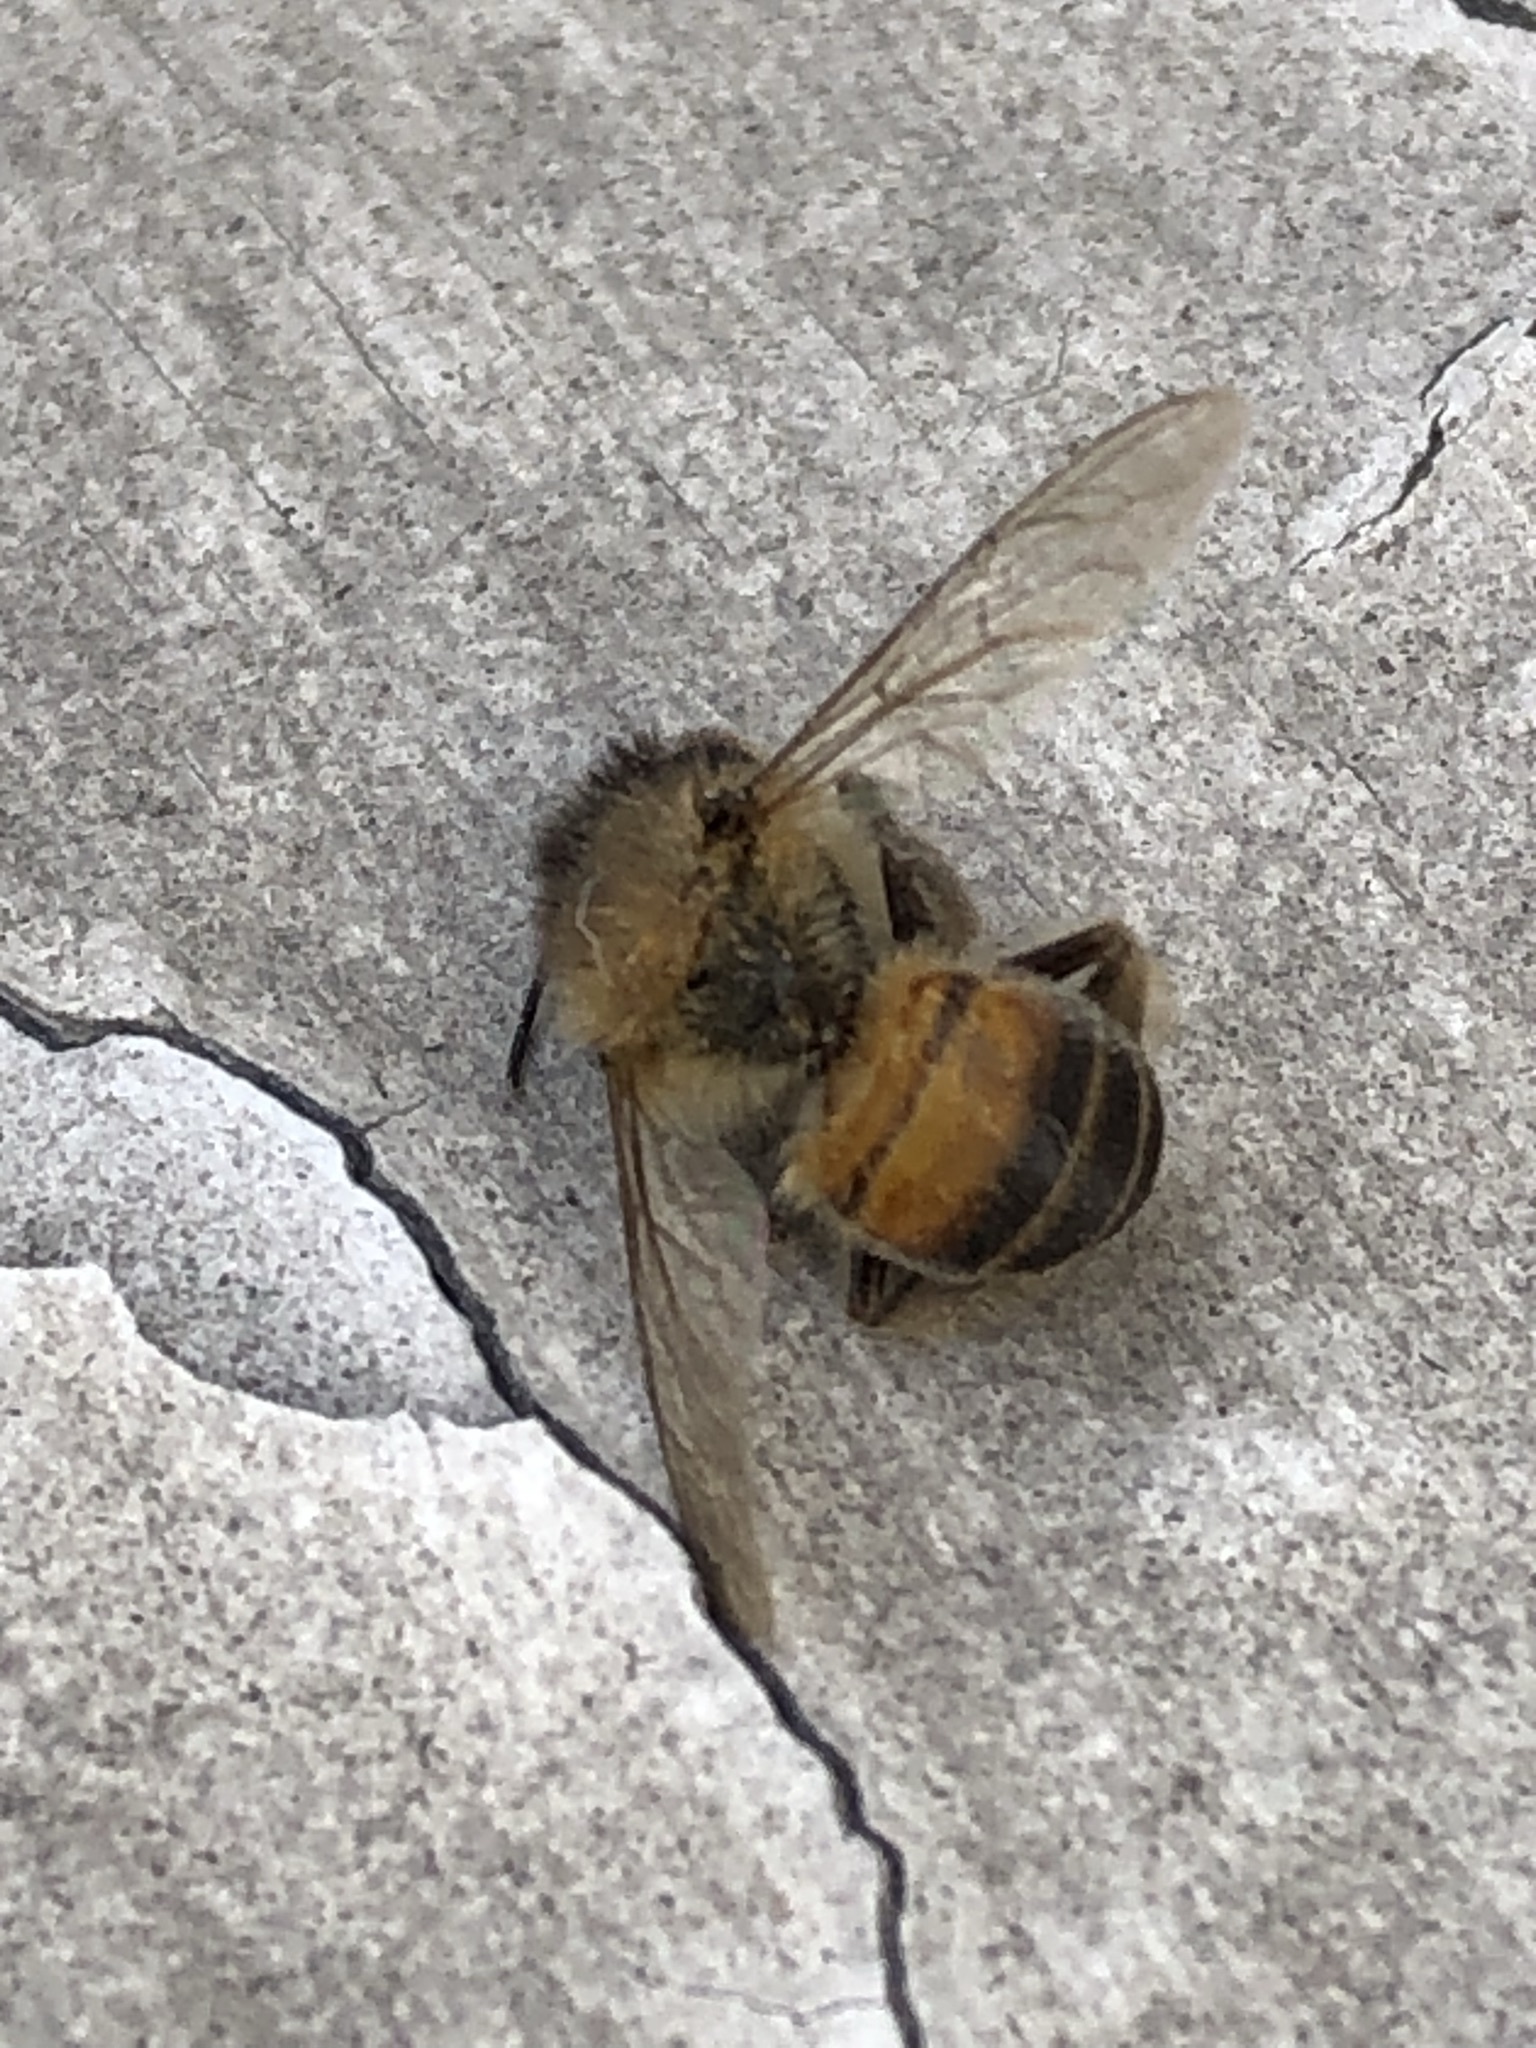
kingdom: Animalia
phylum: Arthropoda
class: Insecta
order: Hymenoptera
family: Apidae
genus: Apis
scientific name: Apis mellifera
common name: Honey bee
